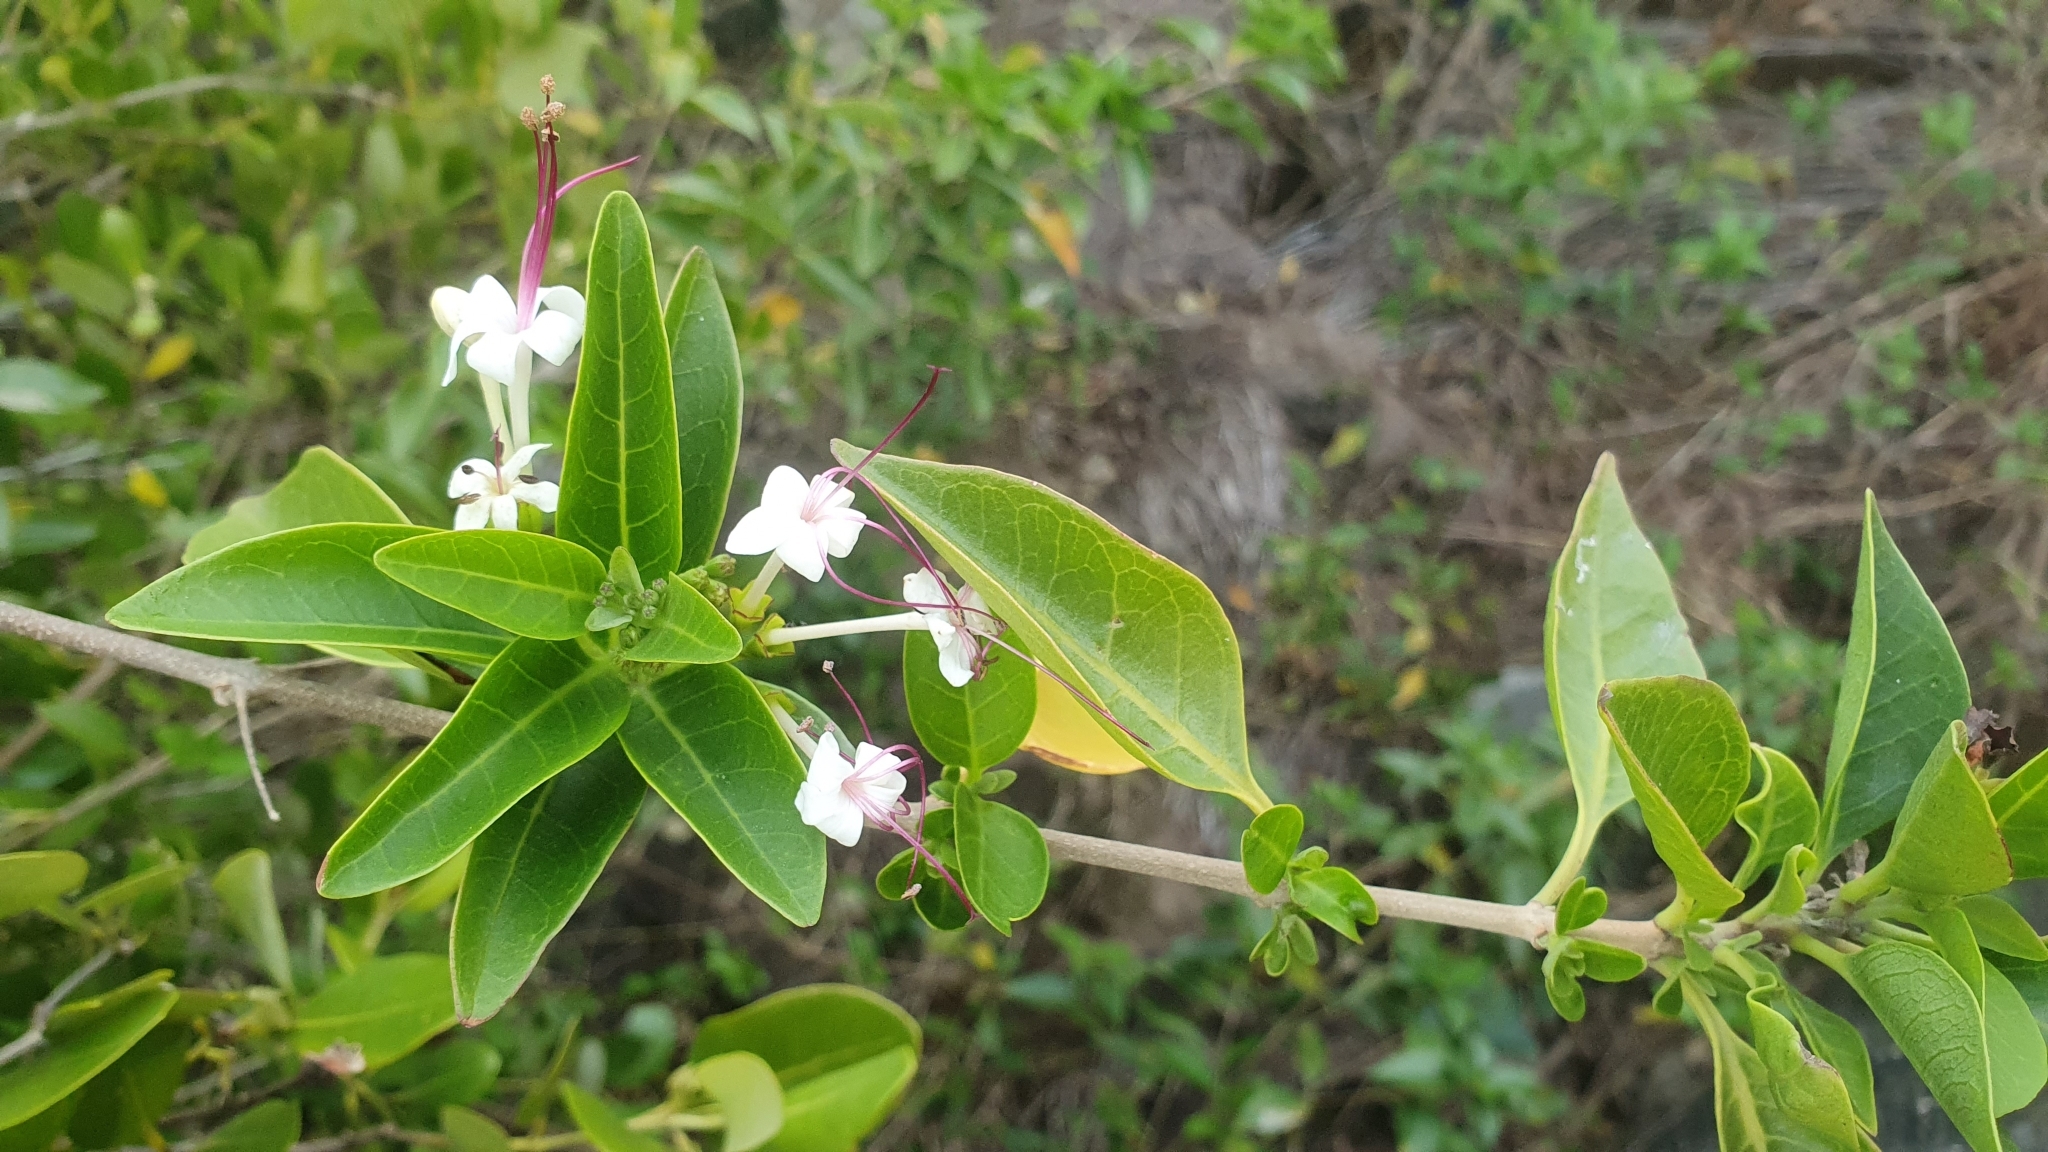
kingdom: Plantae
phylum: Tracheophyta
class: Magnoliopsida
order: Lamiales
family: Lamiaceae
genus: Volkameria
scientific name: Volkameria inermis
